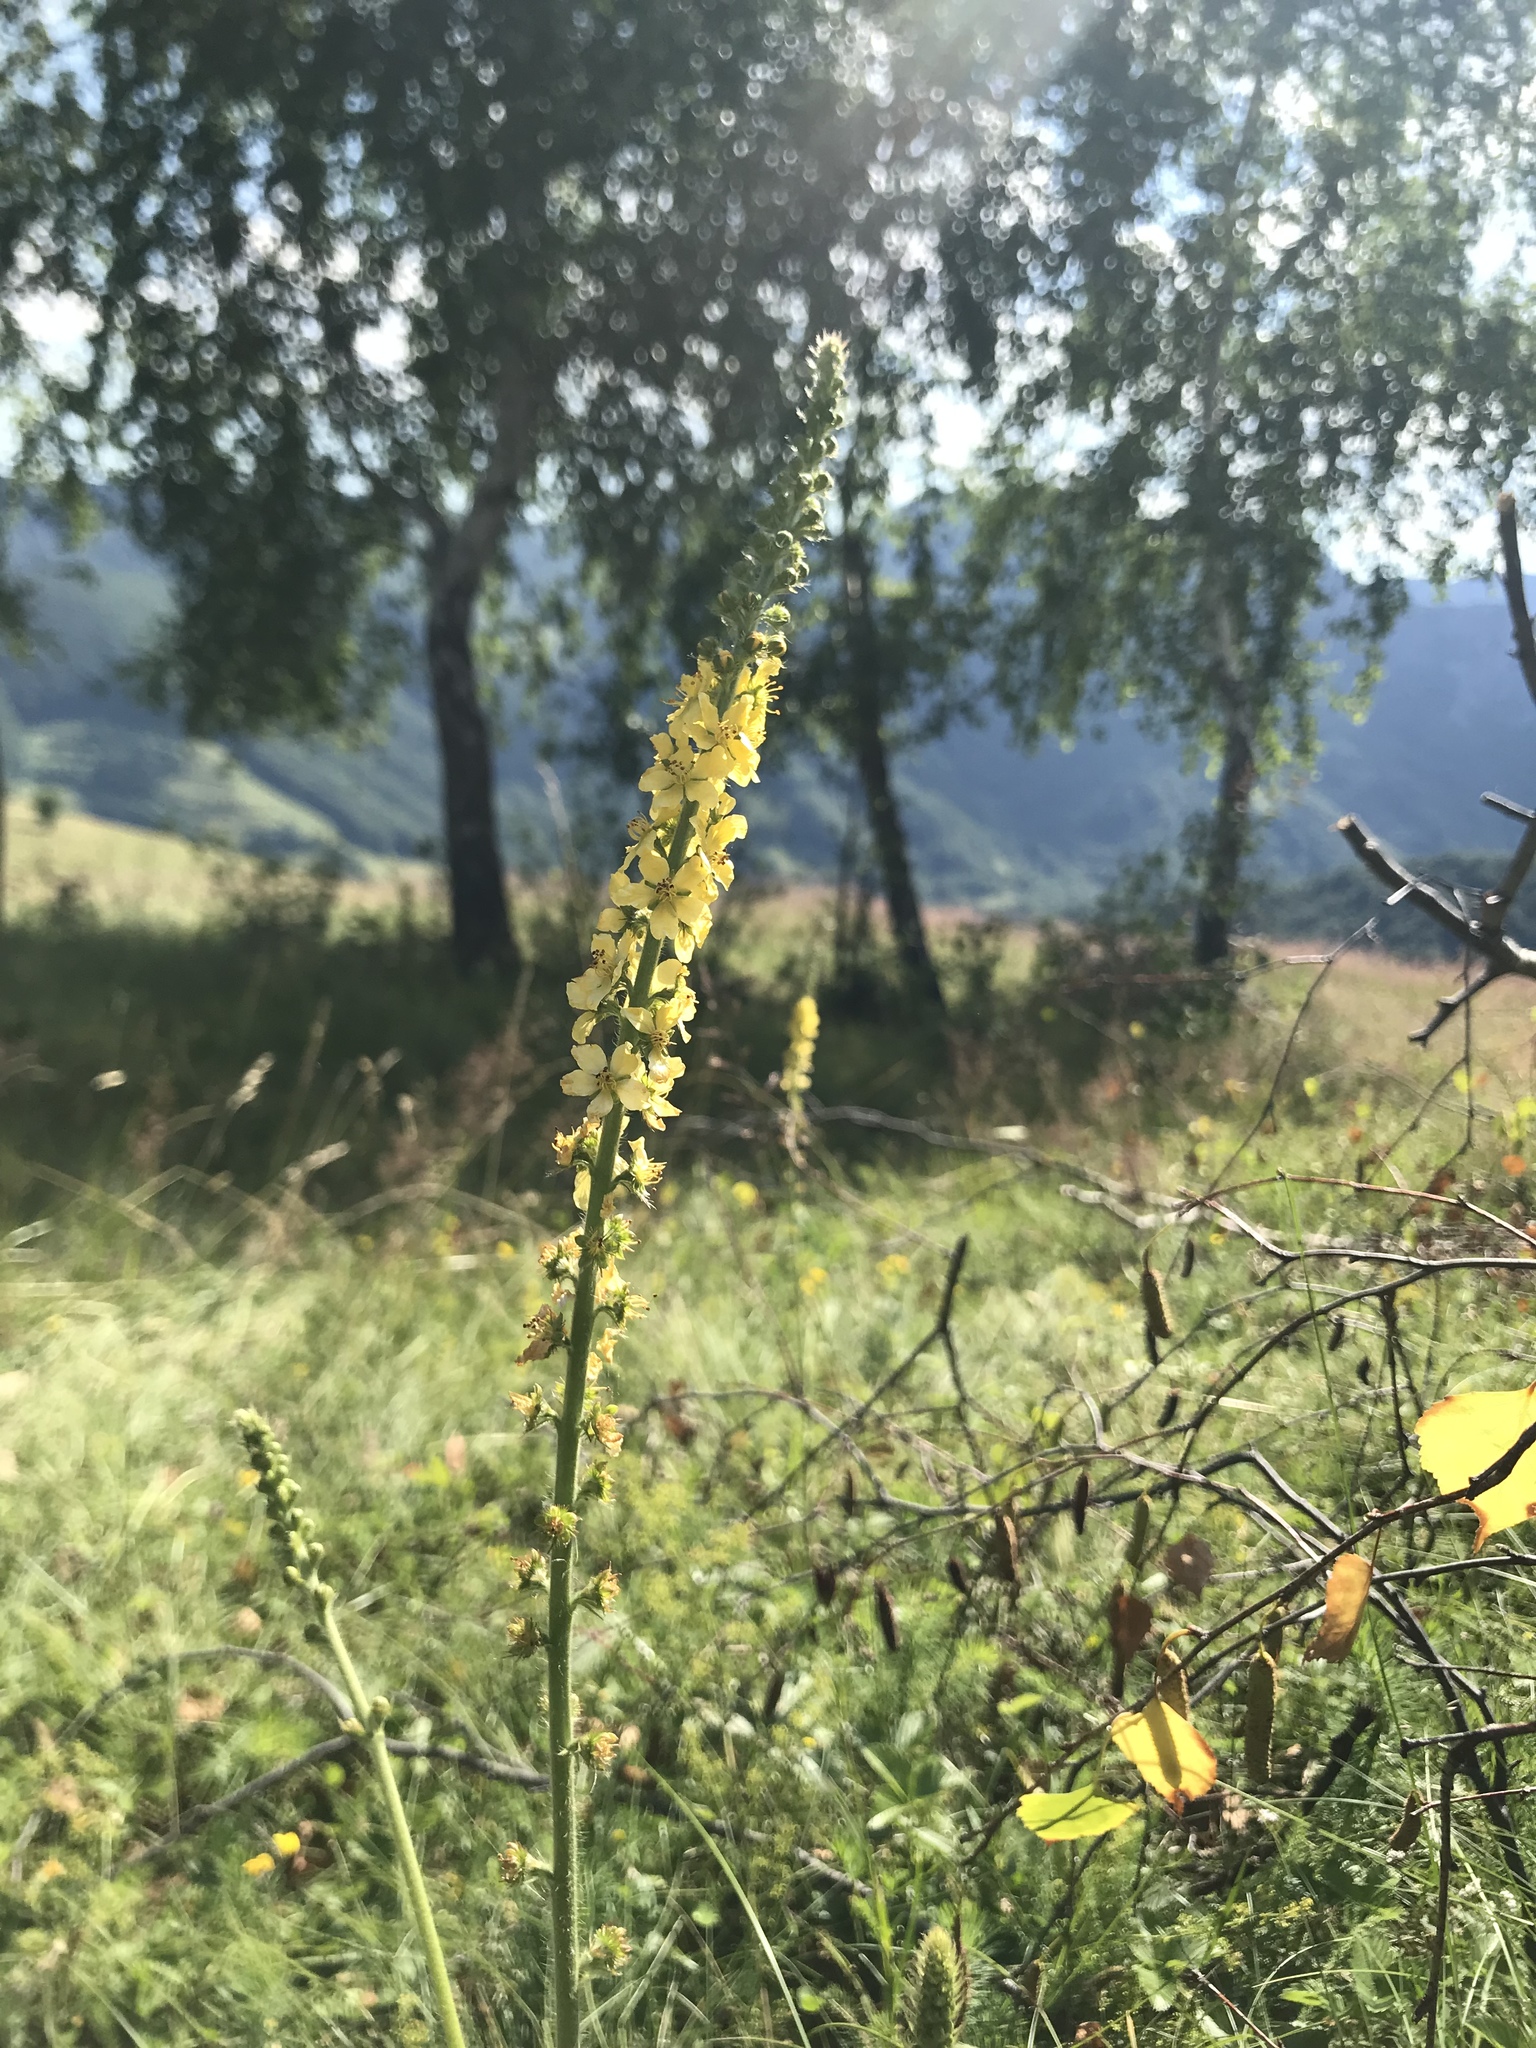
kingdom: Plantae
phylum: Tracheophyta
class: Magnoliopsida
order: Rosales
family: Rosaceae
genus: Agrimonia
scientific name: Agrimonia eupatoria
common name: Agrimony
